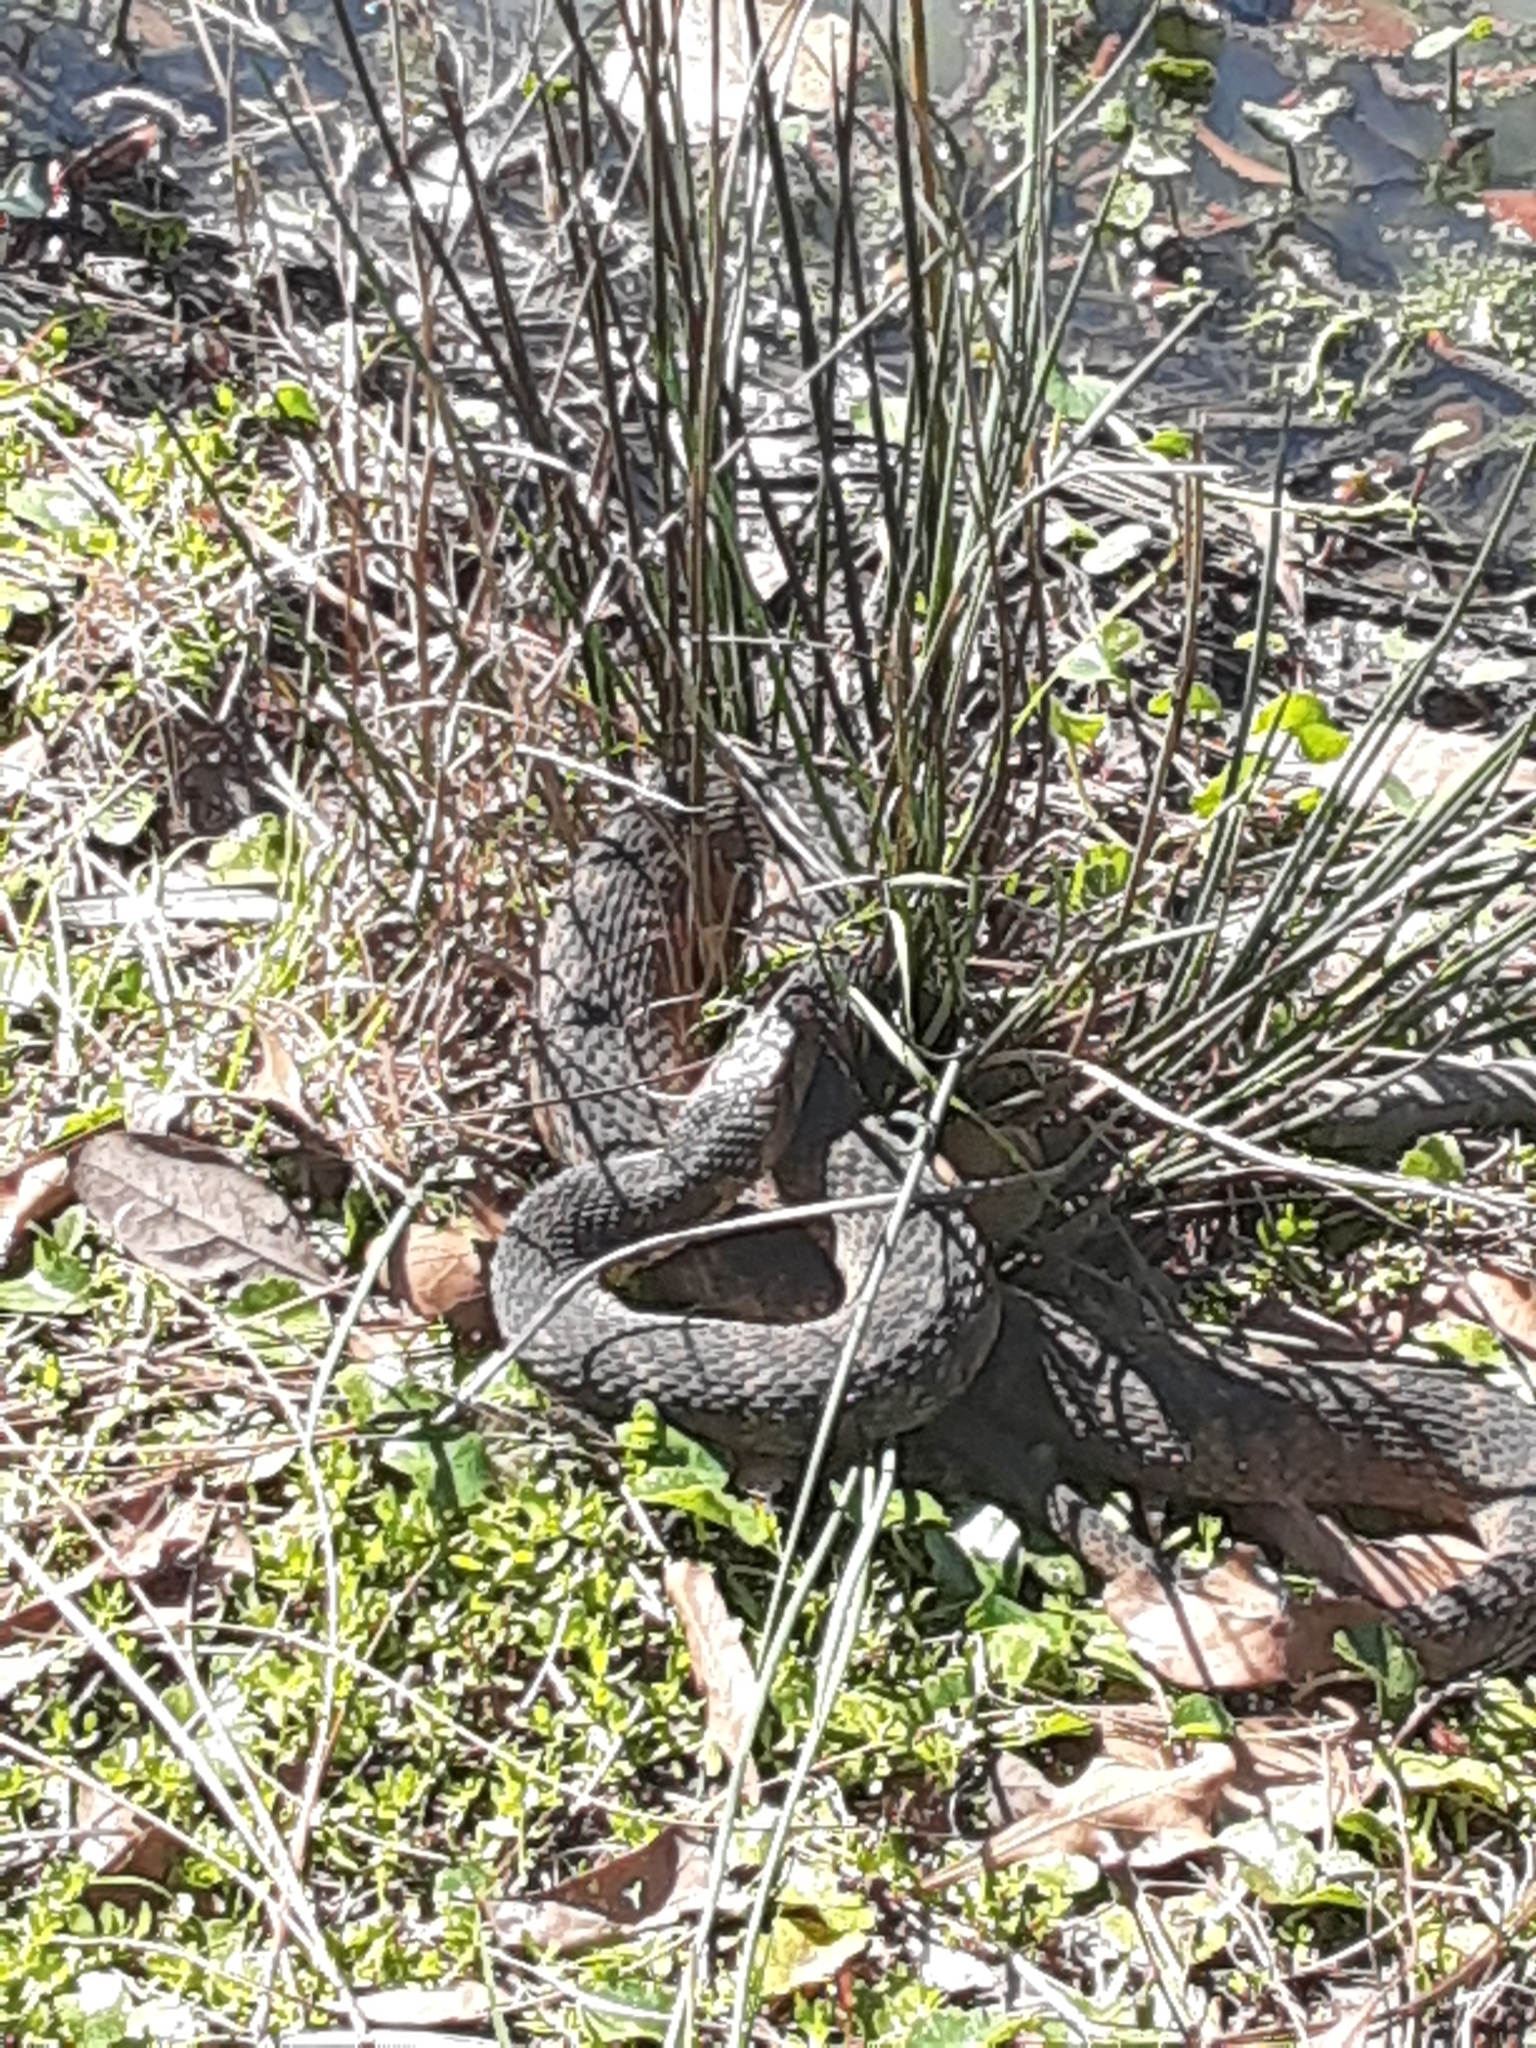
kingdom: Animalia
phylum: Chordata
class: Squamata
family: Colubridae
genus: Nerodia
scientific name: Nerodia fasciata
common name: Southern water snake
